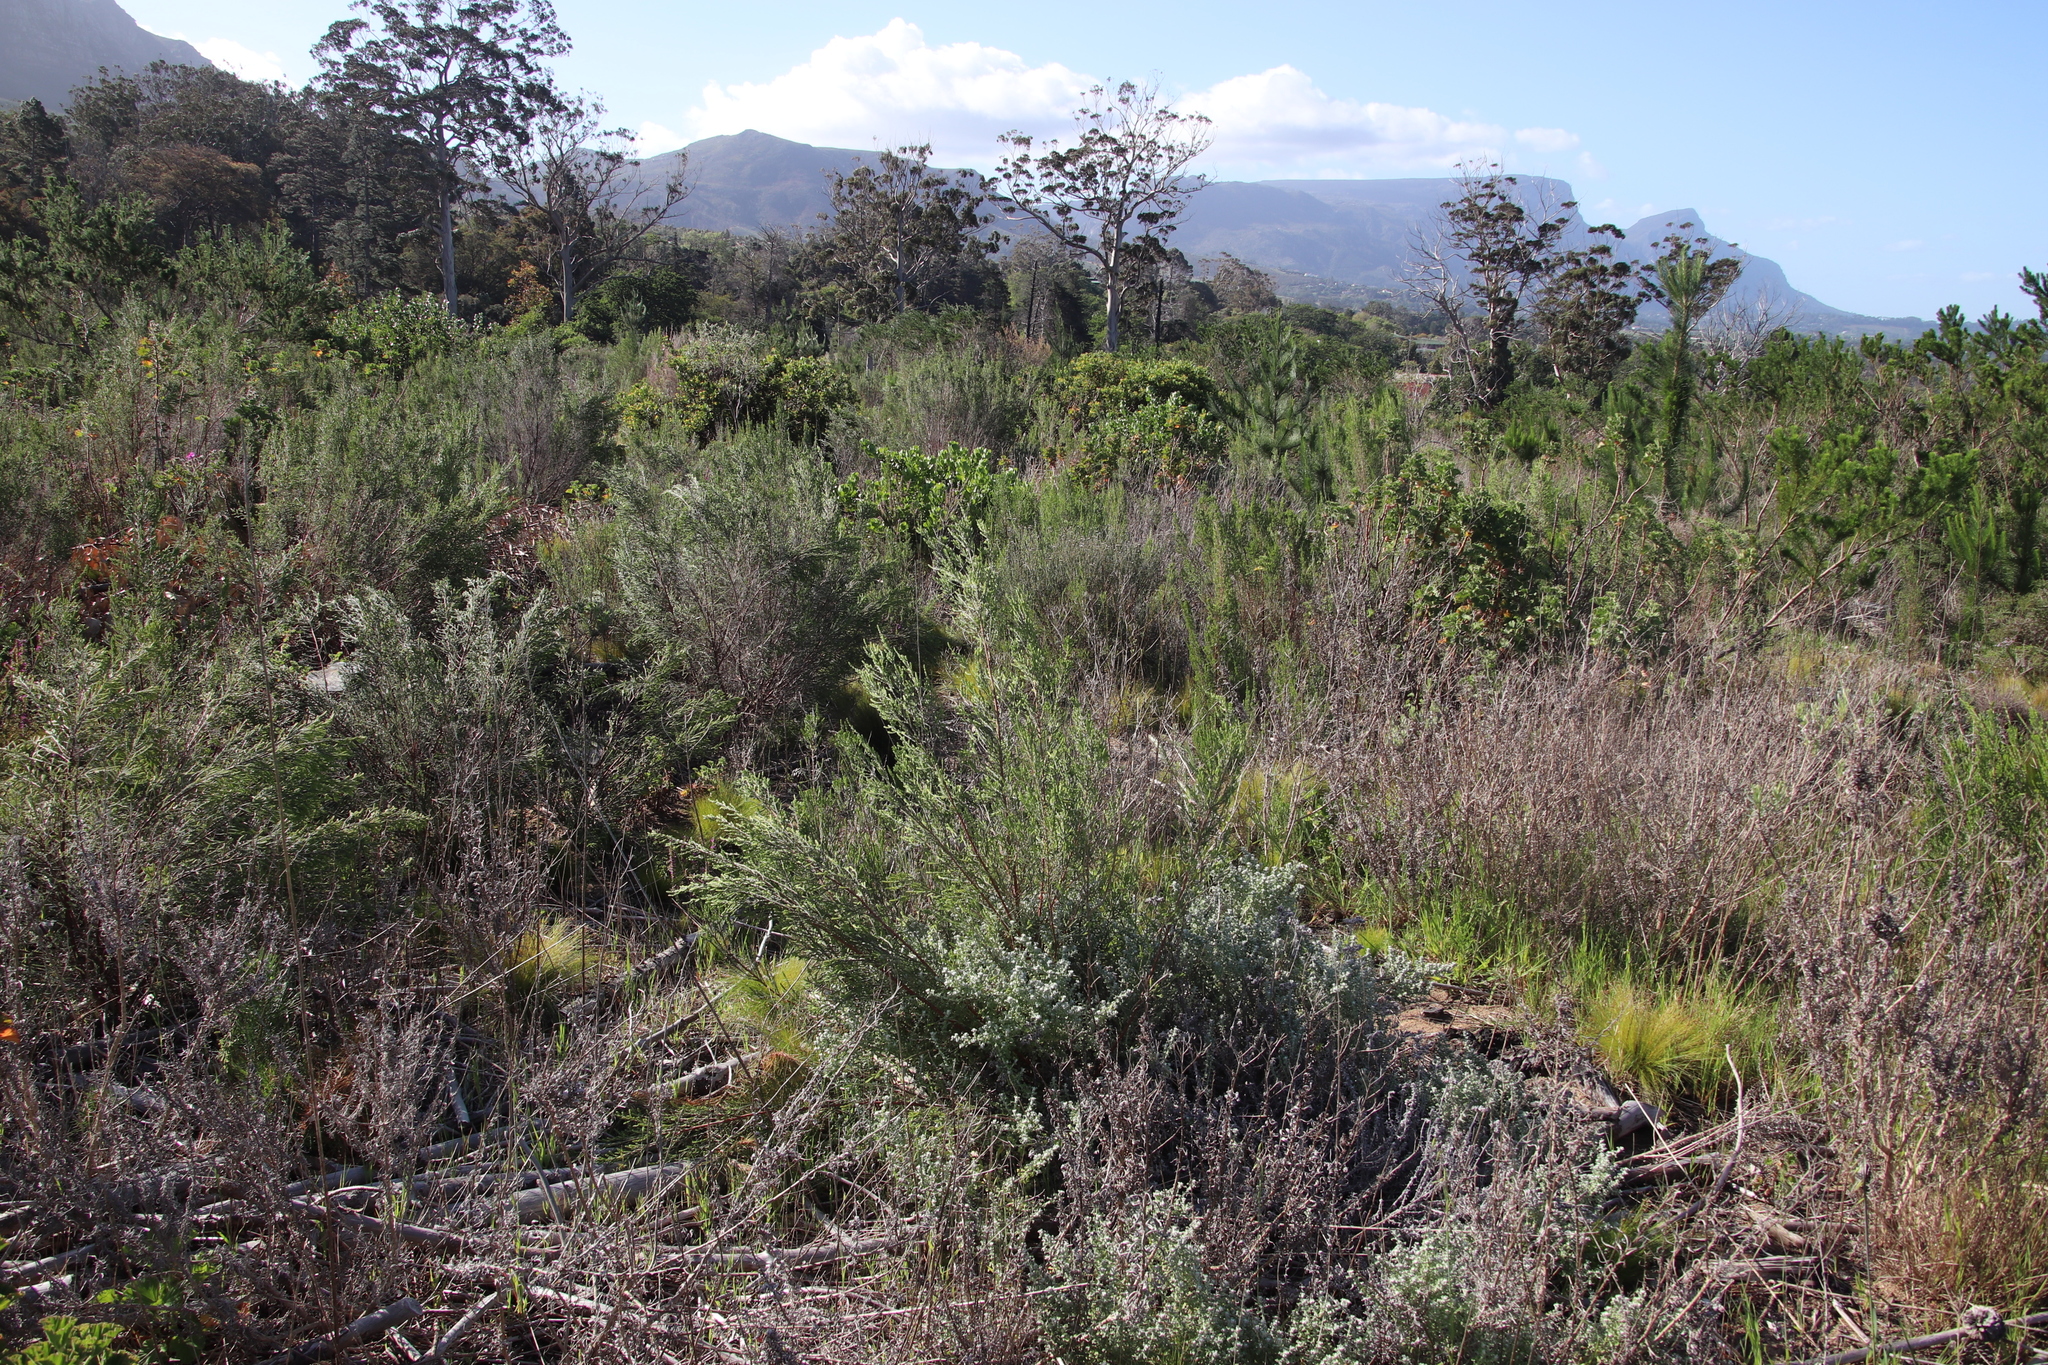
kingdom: Plantae
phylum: Tracheophyta
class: Magnoliopsida
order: Malvales
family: Thymelaeaceae
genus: Passerina
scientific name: Passerina corymbosa
